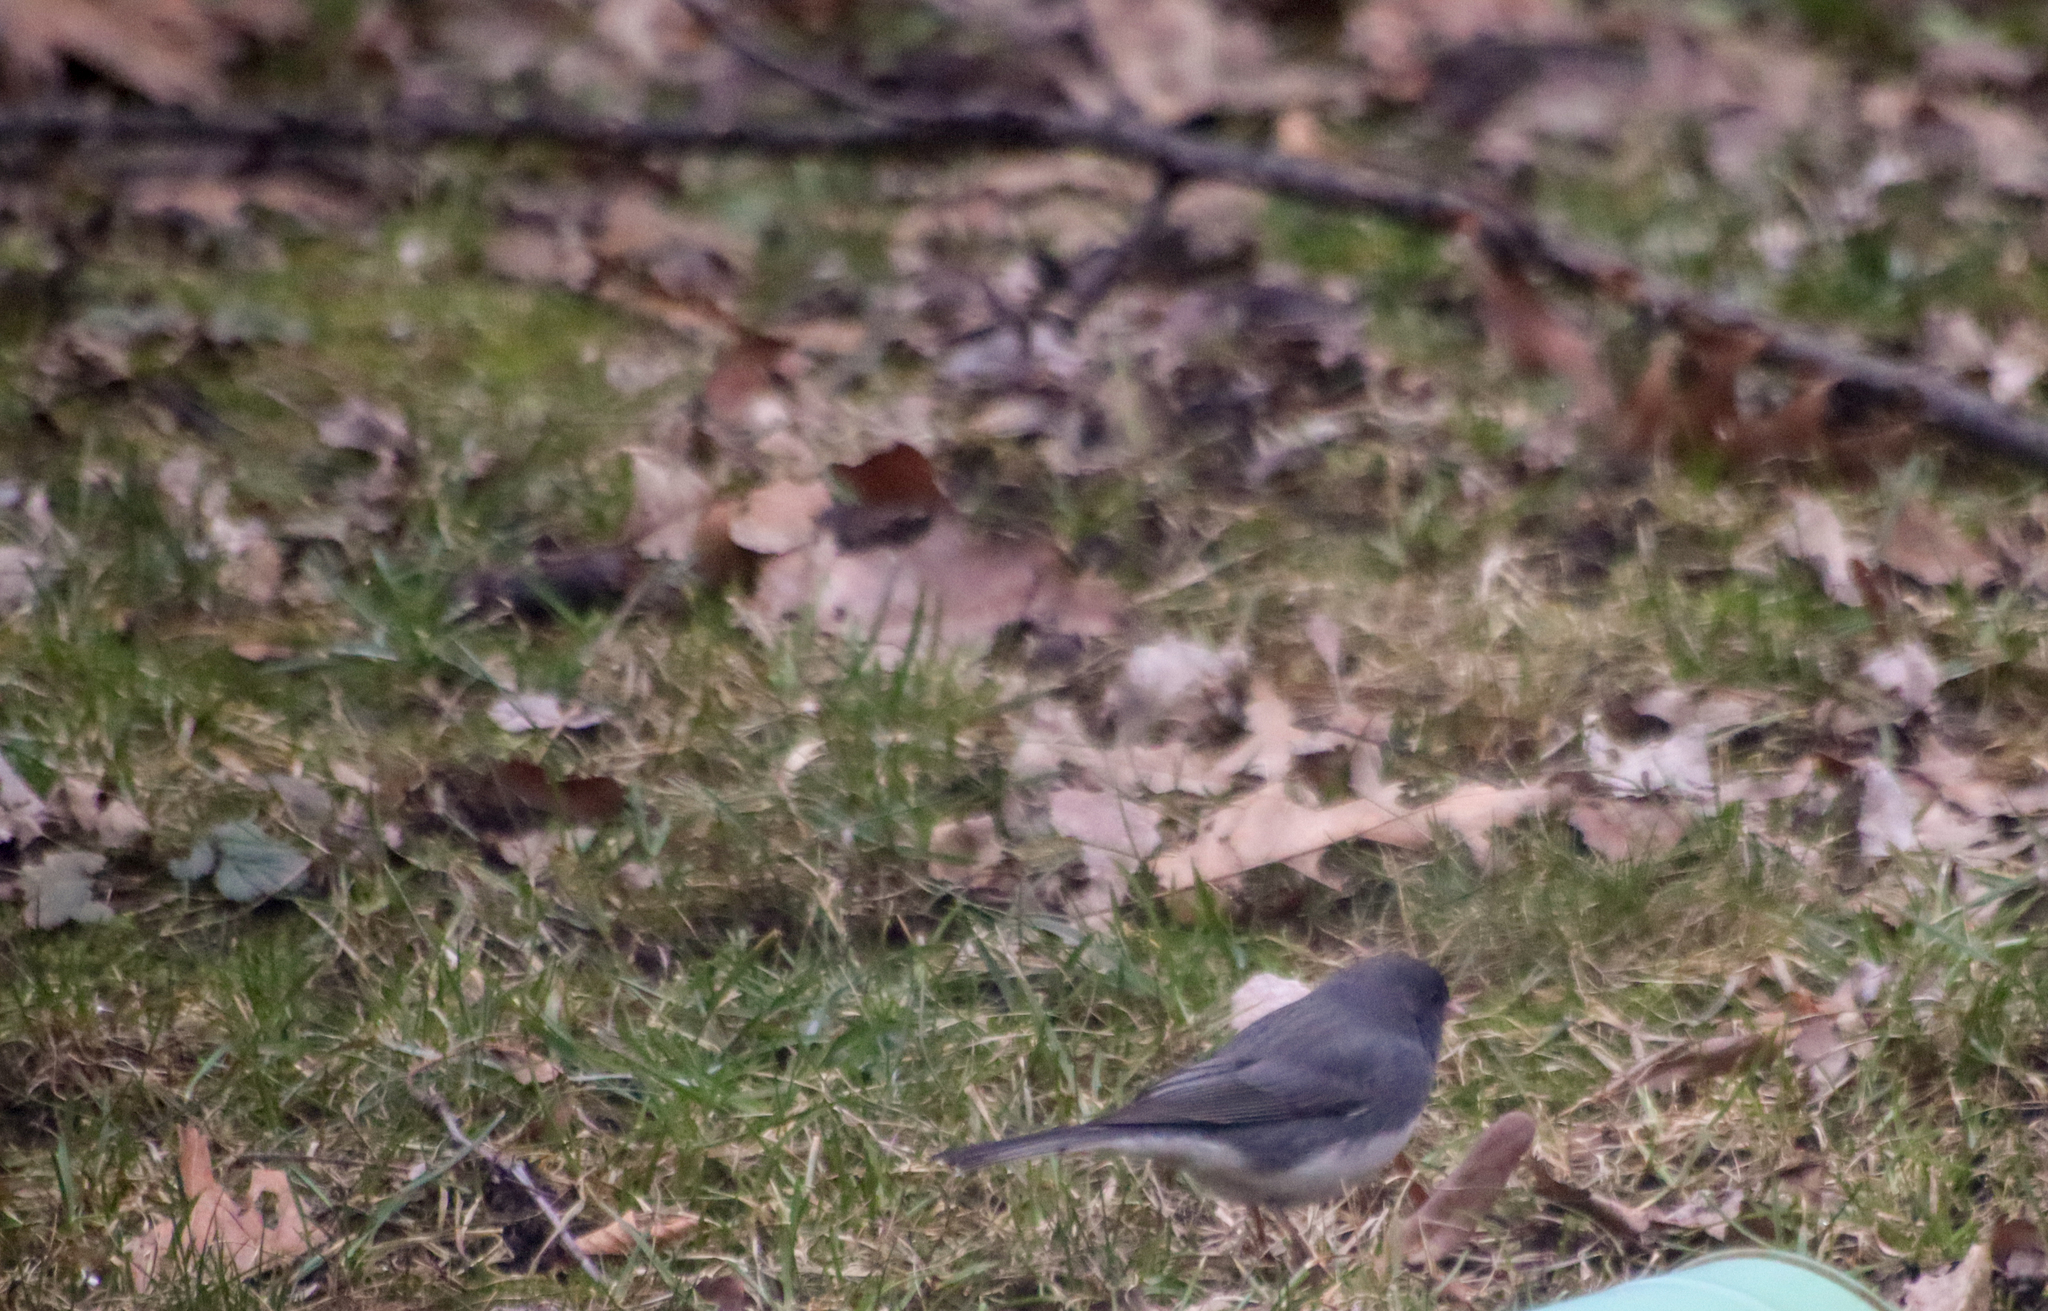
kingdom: Animalia
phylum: Chordata
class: Aves
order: Passeriformes
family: Passerellidae
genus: Junco
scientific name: Junco hyemalis
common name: Dark-eyed junco
